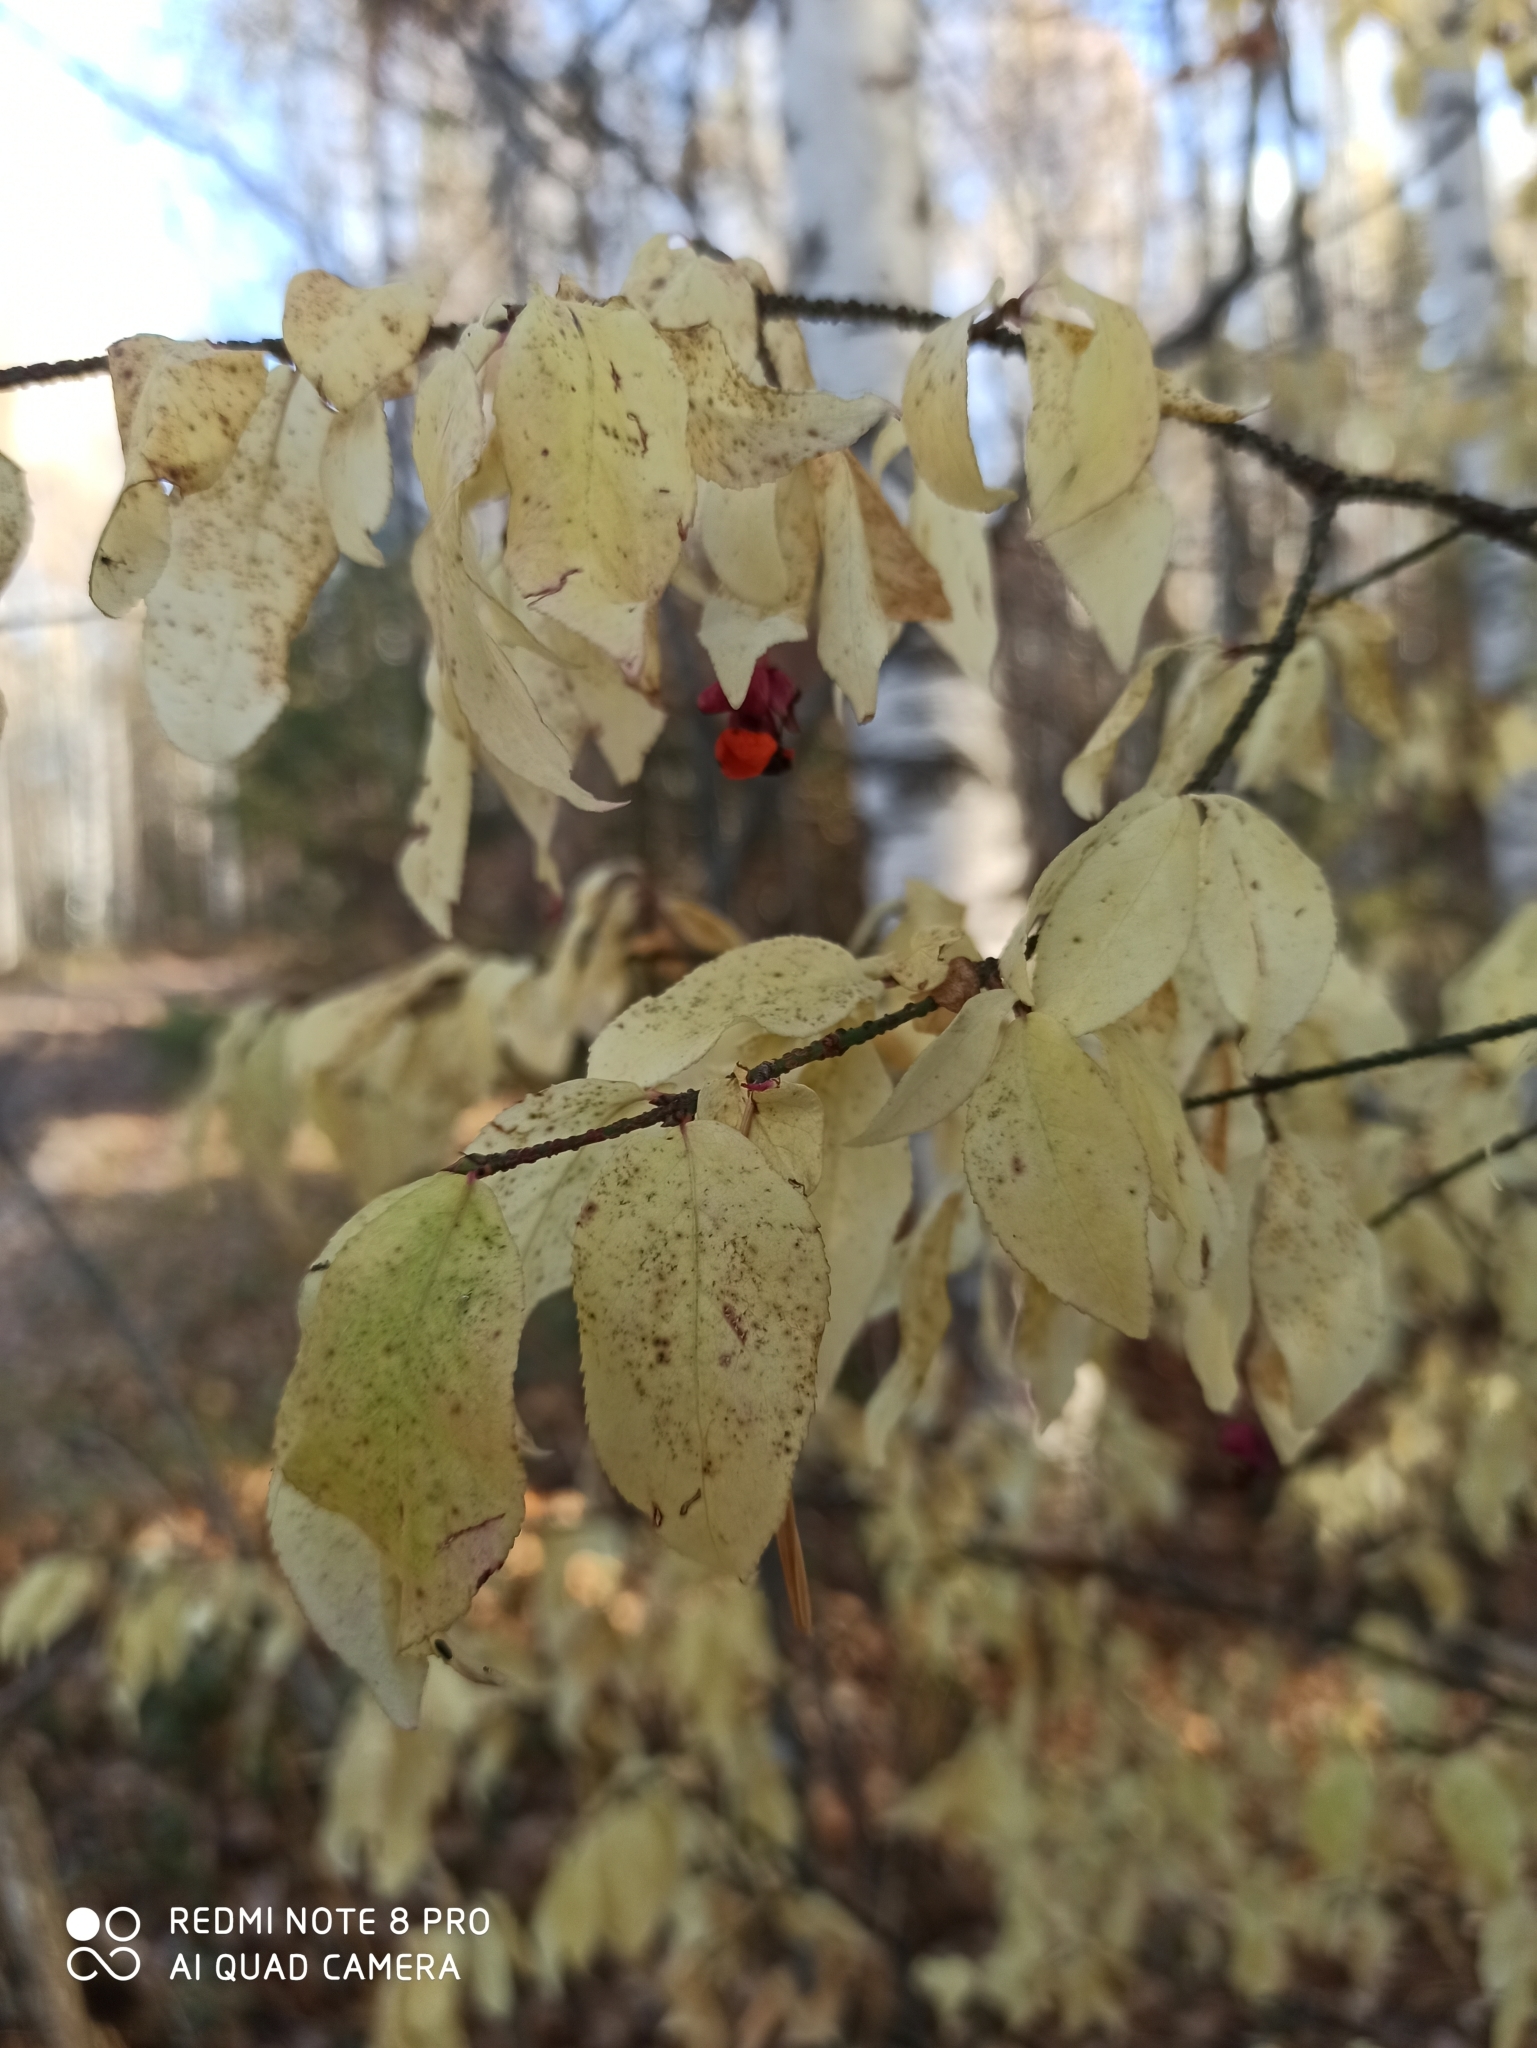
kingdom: Plantae
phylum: Tracheophyta
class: Magnoliopsida
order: Celastrales
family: Celastraceae
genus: Euonymus
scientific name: Euonymus verrucosus
